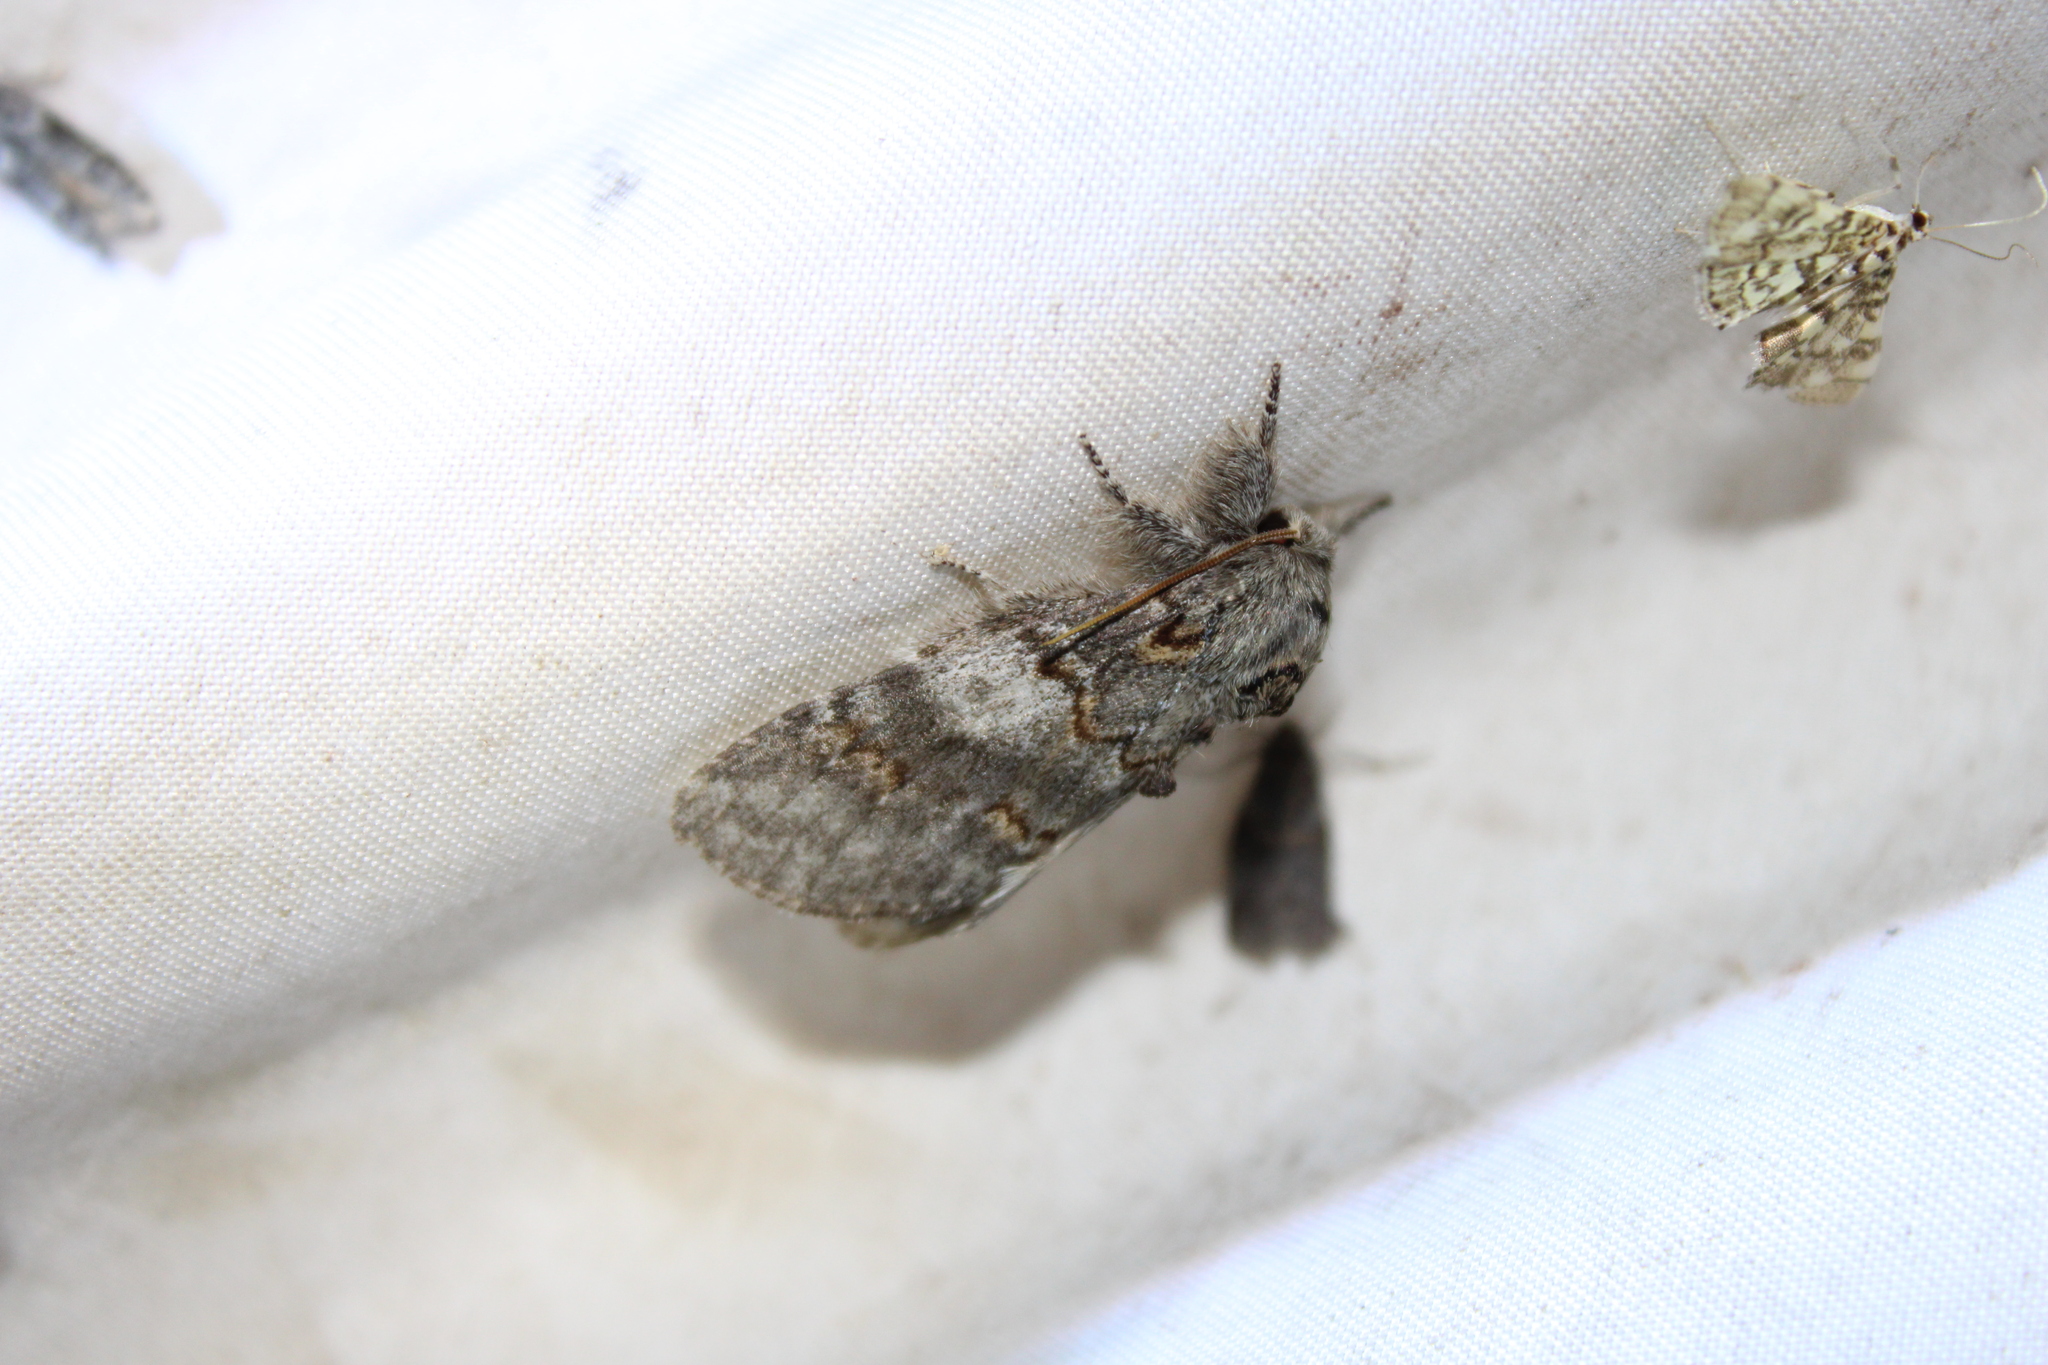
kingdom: Animalia
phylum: Arthropoda
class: Insecta
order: Lepidoptera
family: Notodontidae
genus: Peridea
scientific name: Peridea angulosa
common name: Angulose prominent
